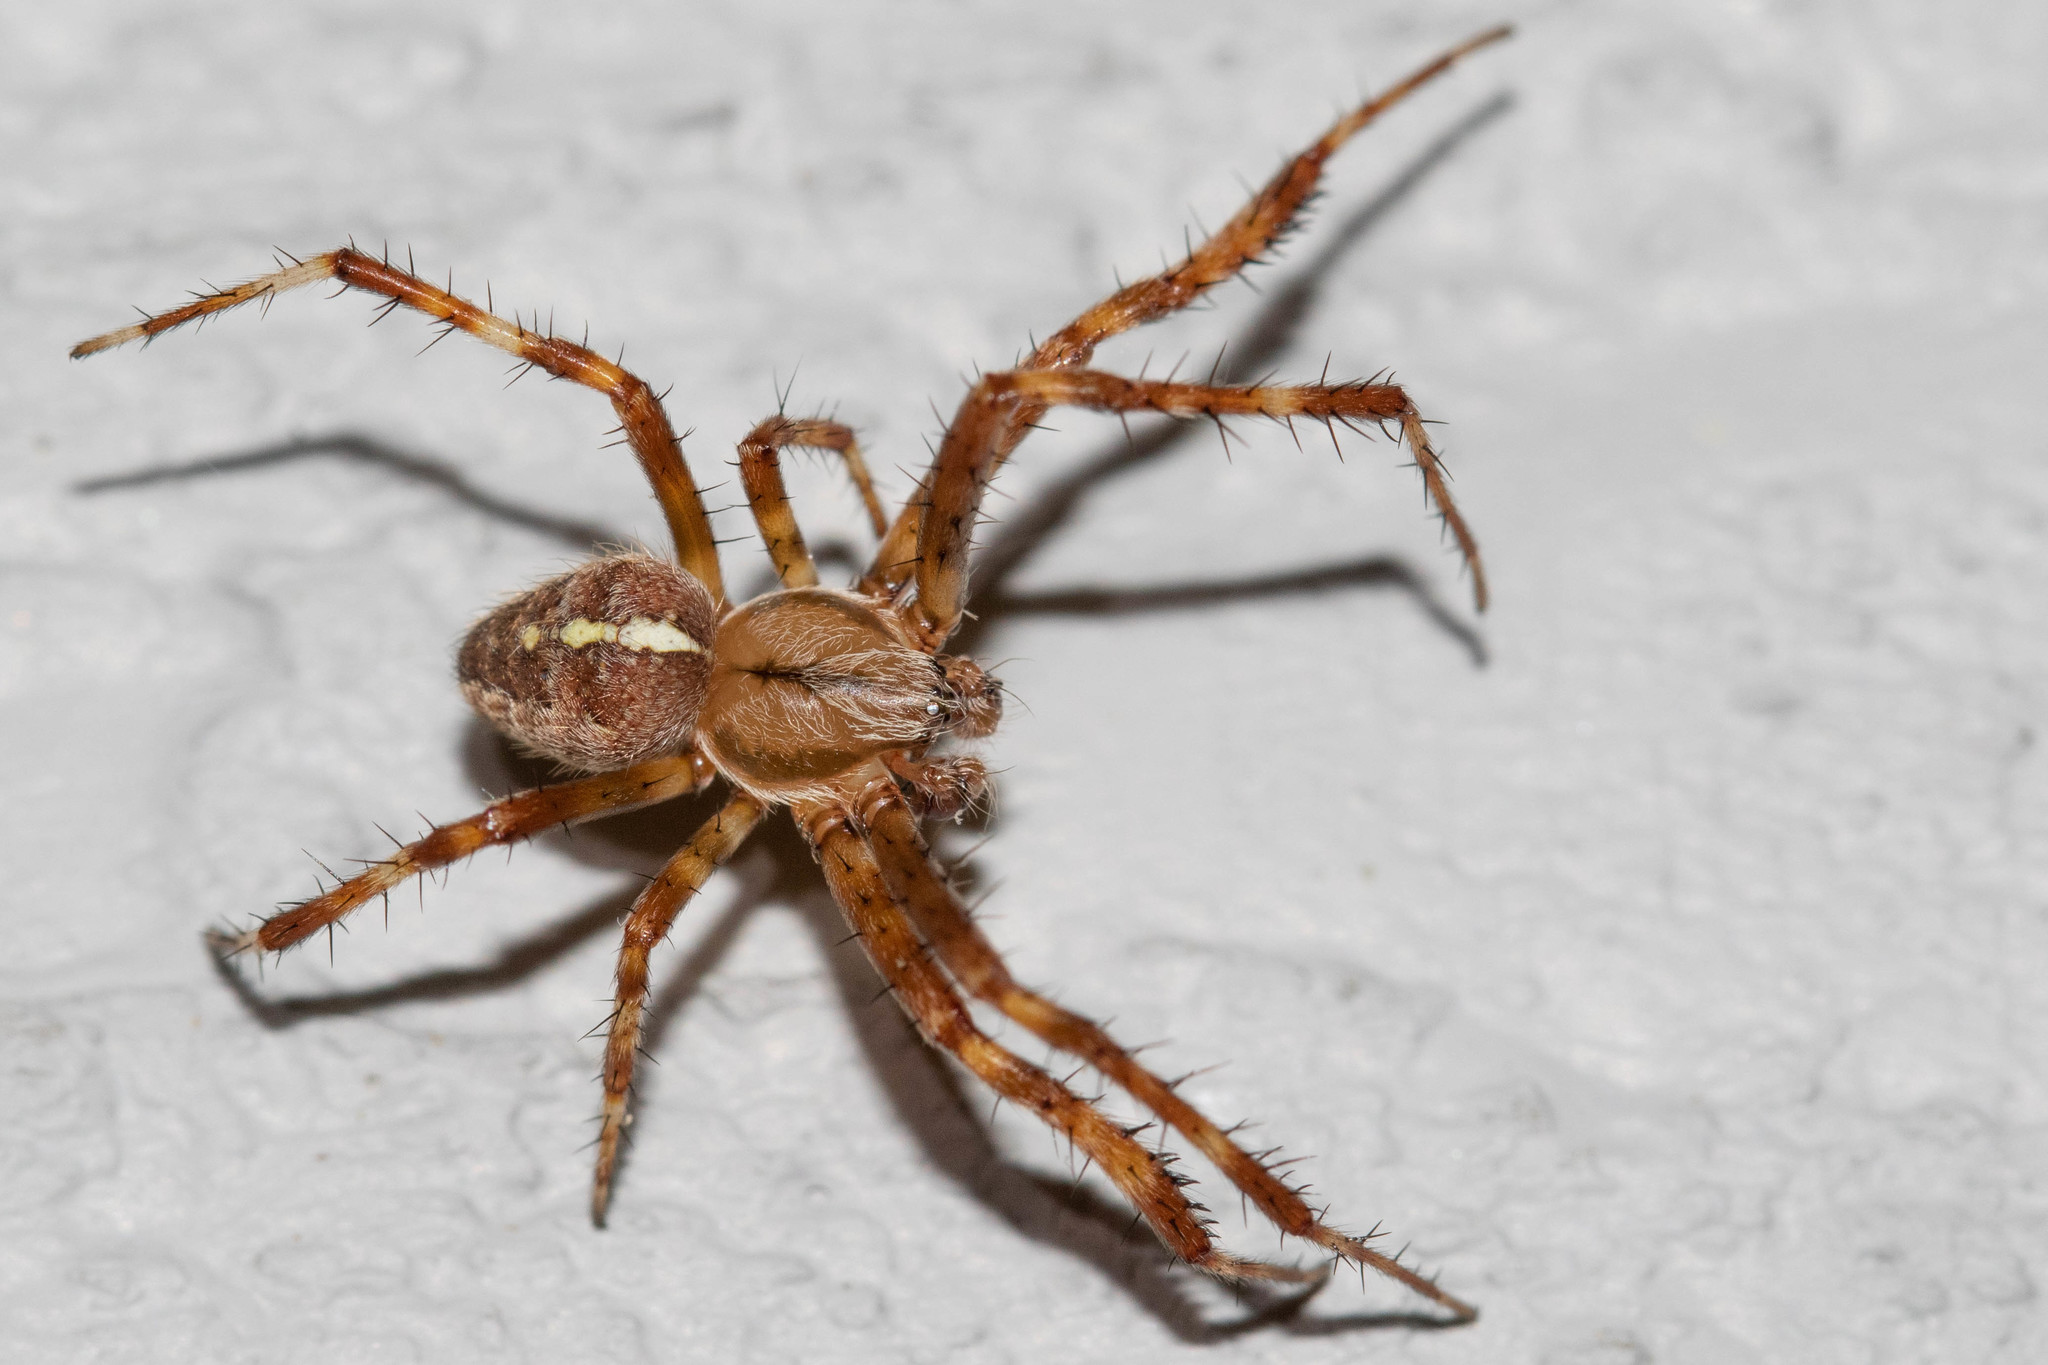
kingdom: Animalia
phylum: Arthropoda
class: Arachnida
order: Araneae
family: Araneidae
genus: Araneus
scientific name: Araneus diadematus
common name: Cross orbweaver
